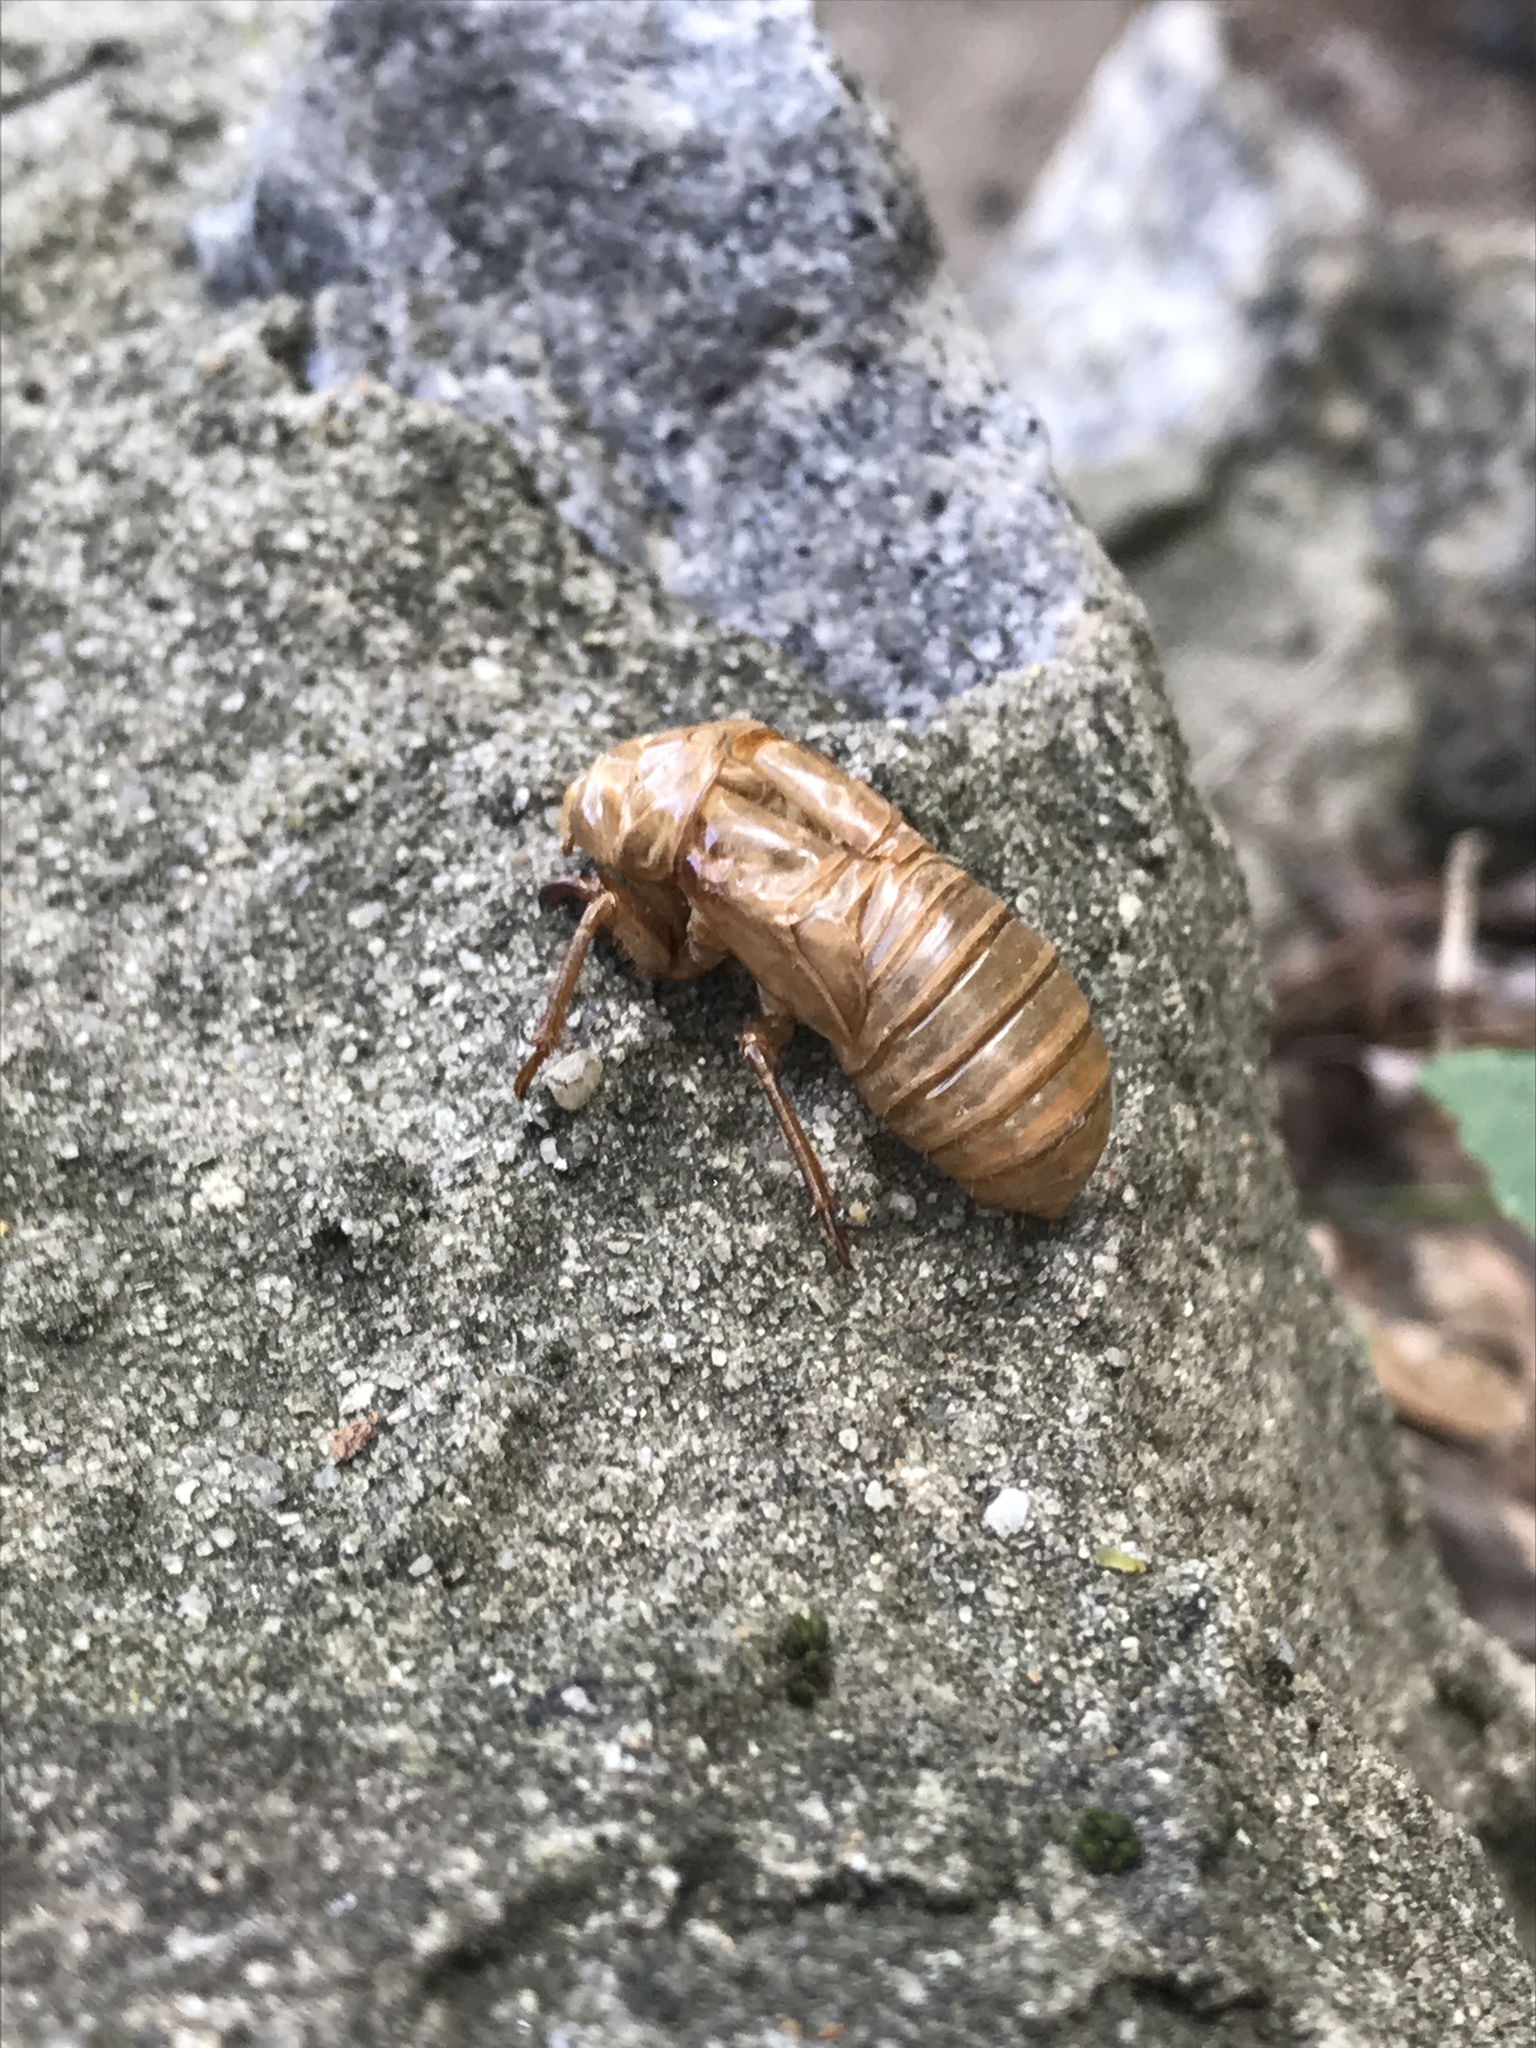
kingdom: Animalia
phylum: Arthropoda
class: Insecta
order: Hemiptera
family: Cicadidae
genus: Magicicada
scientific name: Magicicada
